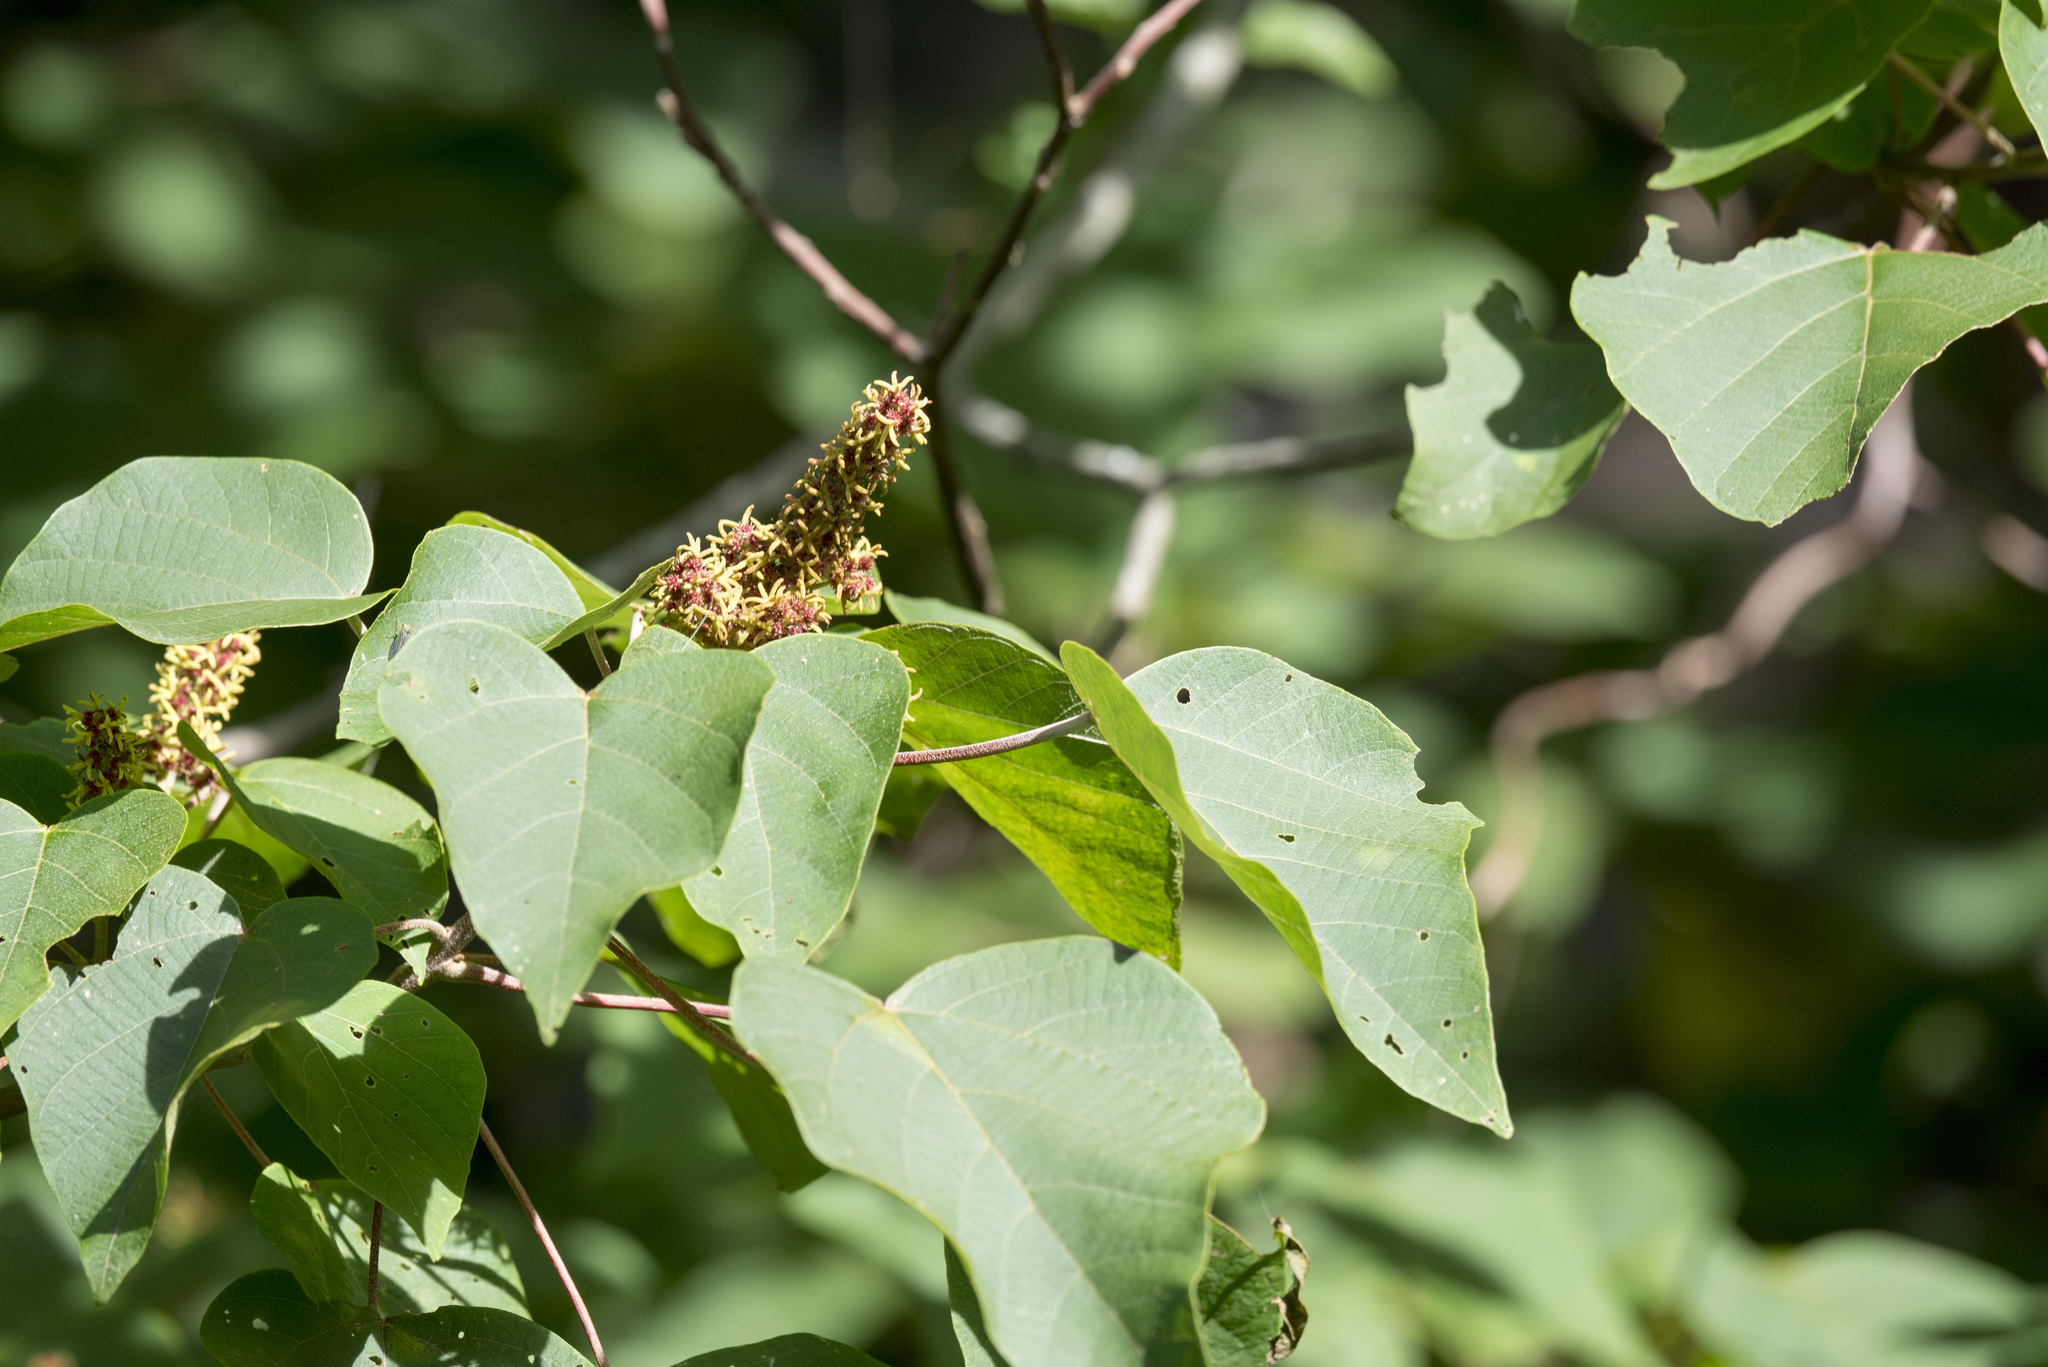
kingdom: Plantae
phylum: Tracheophyta
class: Magnoliopsida
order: Malpighiales
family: Euphorbiaceae
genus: Mallotus
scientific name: Mallotus paniculatus
